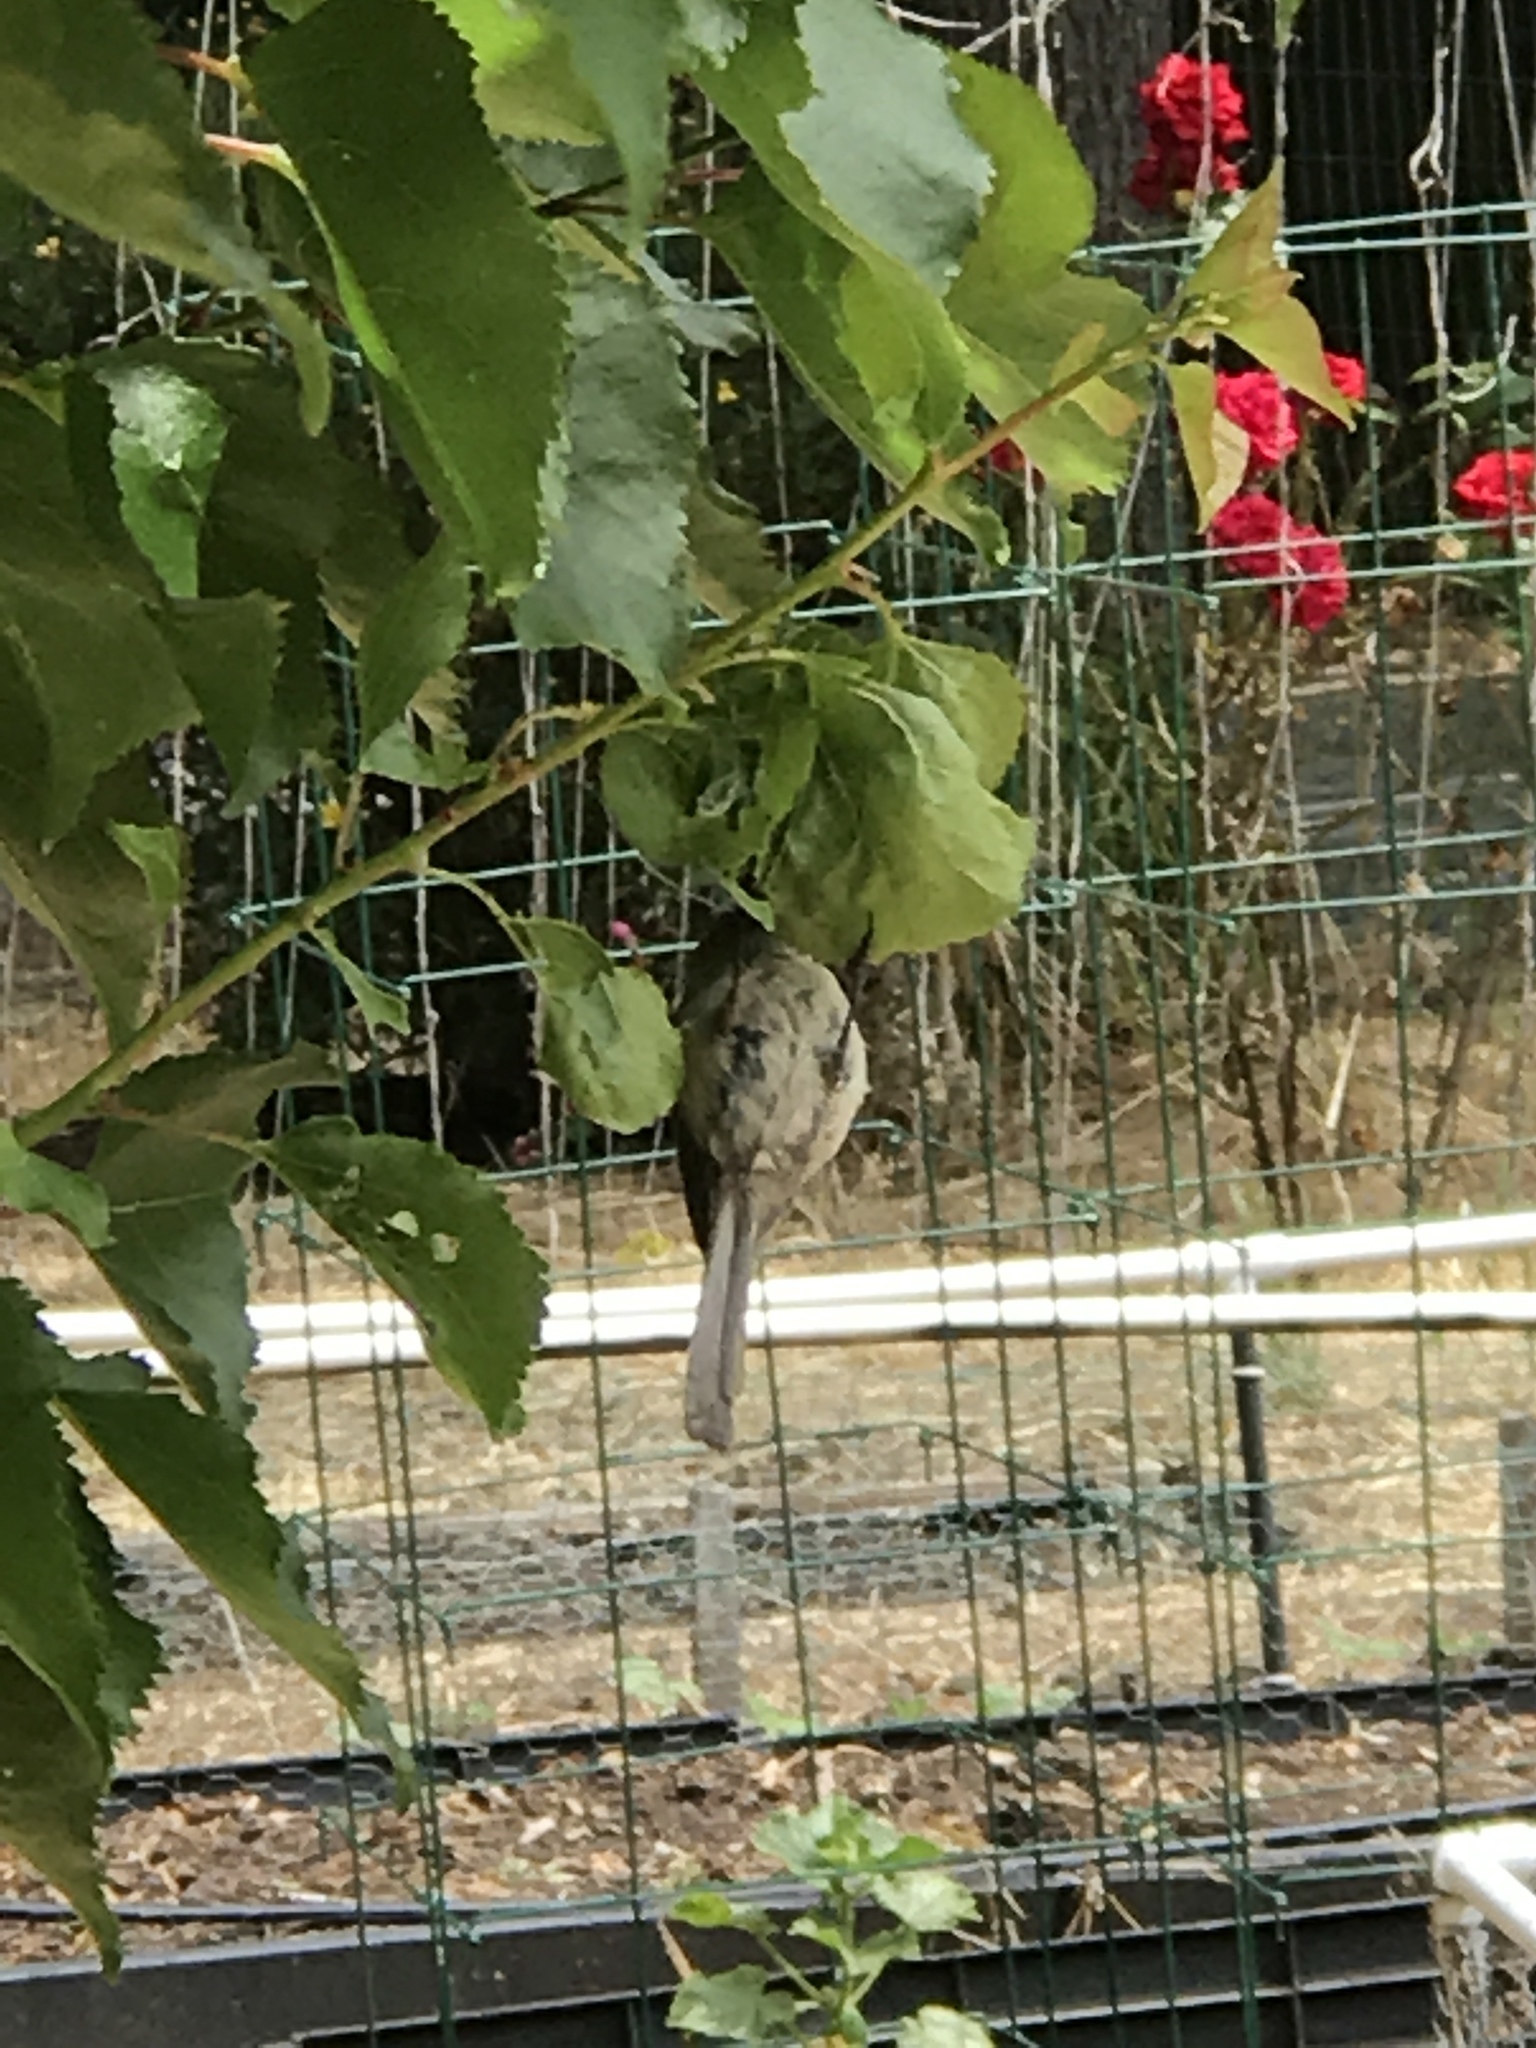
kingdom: Animalia
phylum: Chordata
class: Aves
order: Passeriformes
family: Aegithalidae
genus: Psaltriparus
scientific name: Psaltriparus minimus
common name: American bushtit
